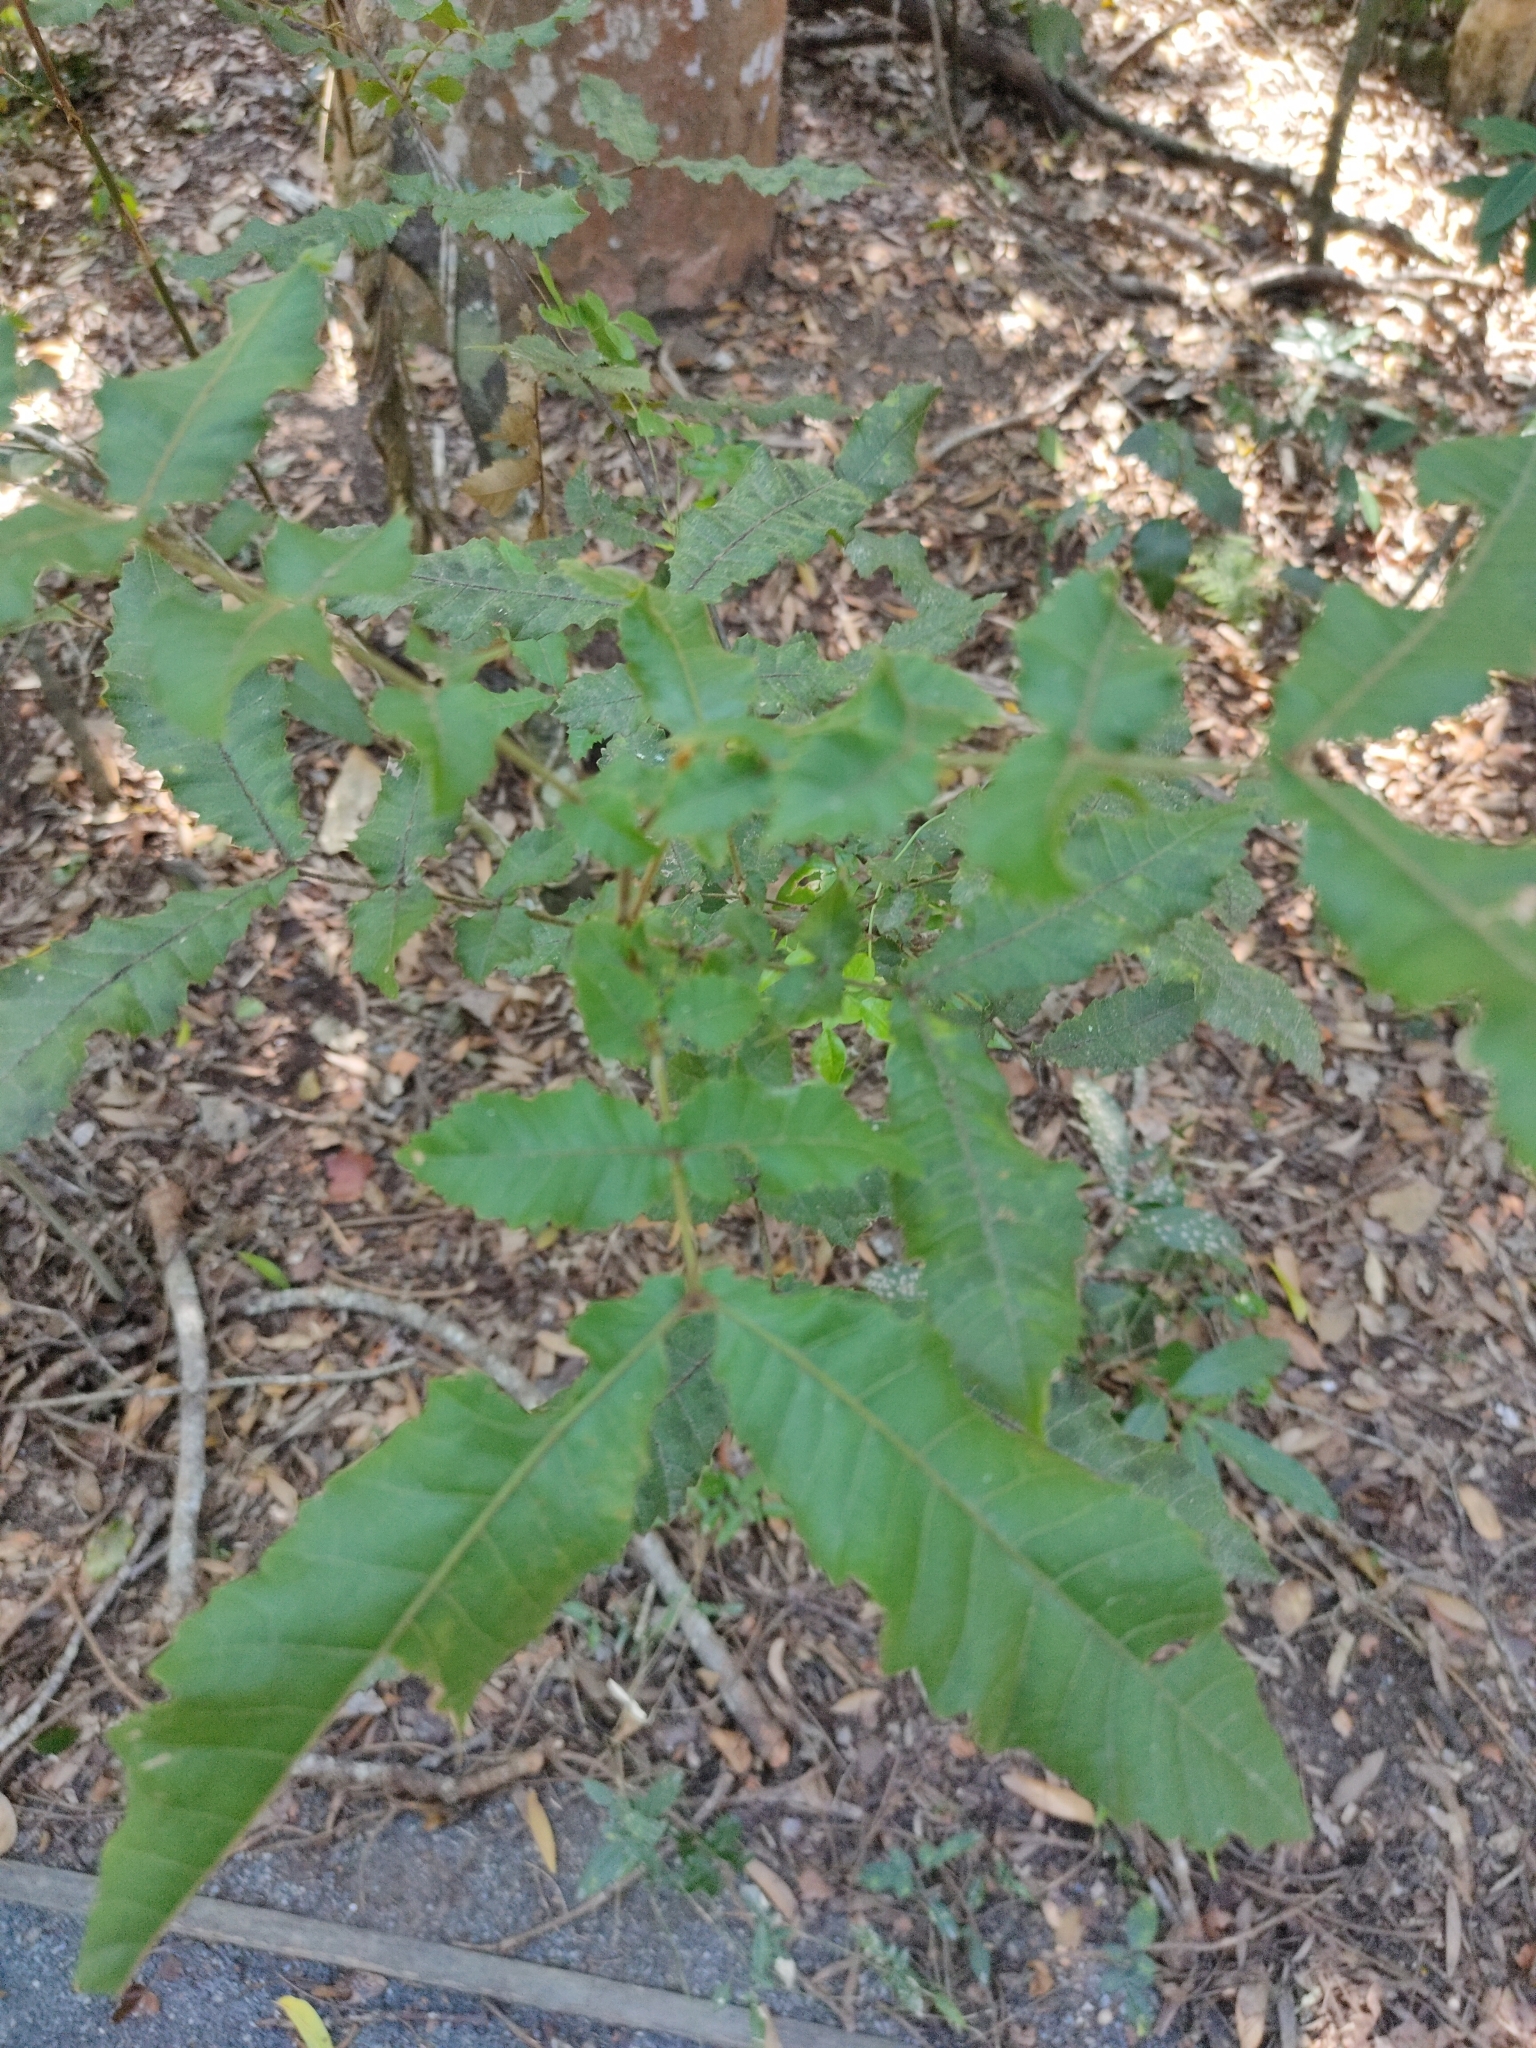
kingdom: Plantae
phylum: Tracheophyta
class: Magnoliopsida
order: Sapindales
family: Sapindaceae
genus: Alectryon
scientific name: Alectryon tomentosus
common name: Bed-jacket
